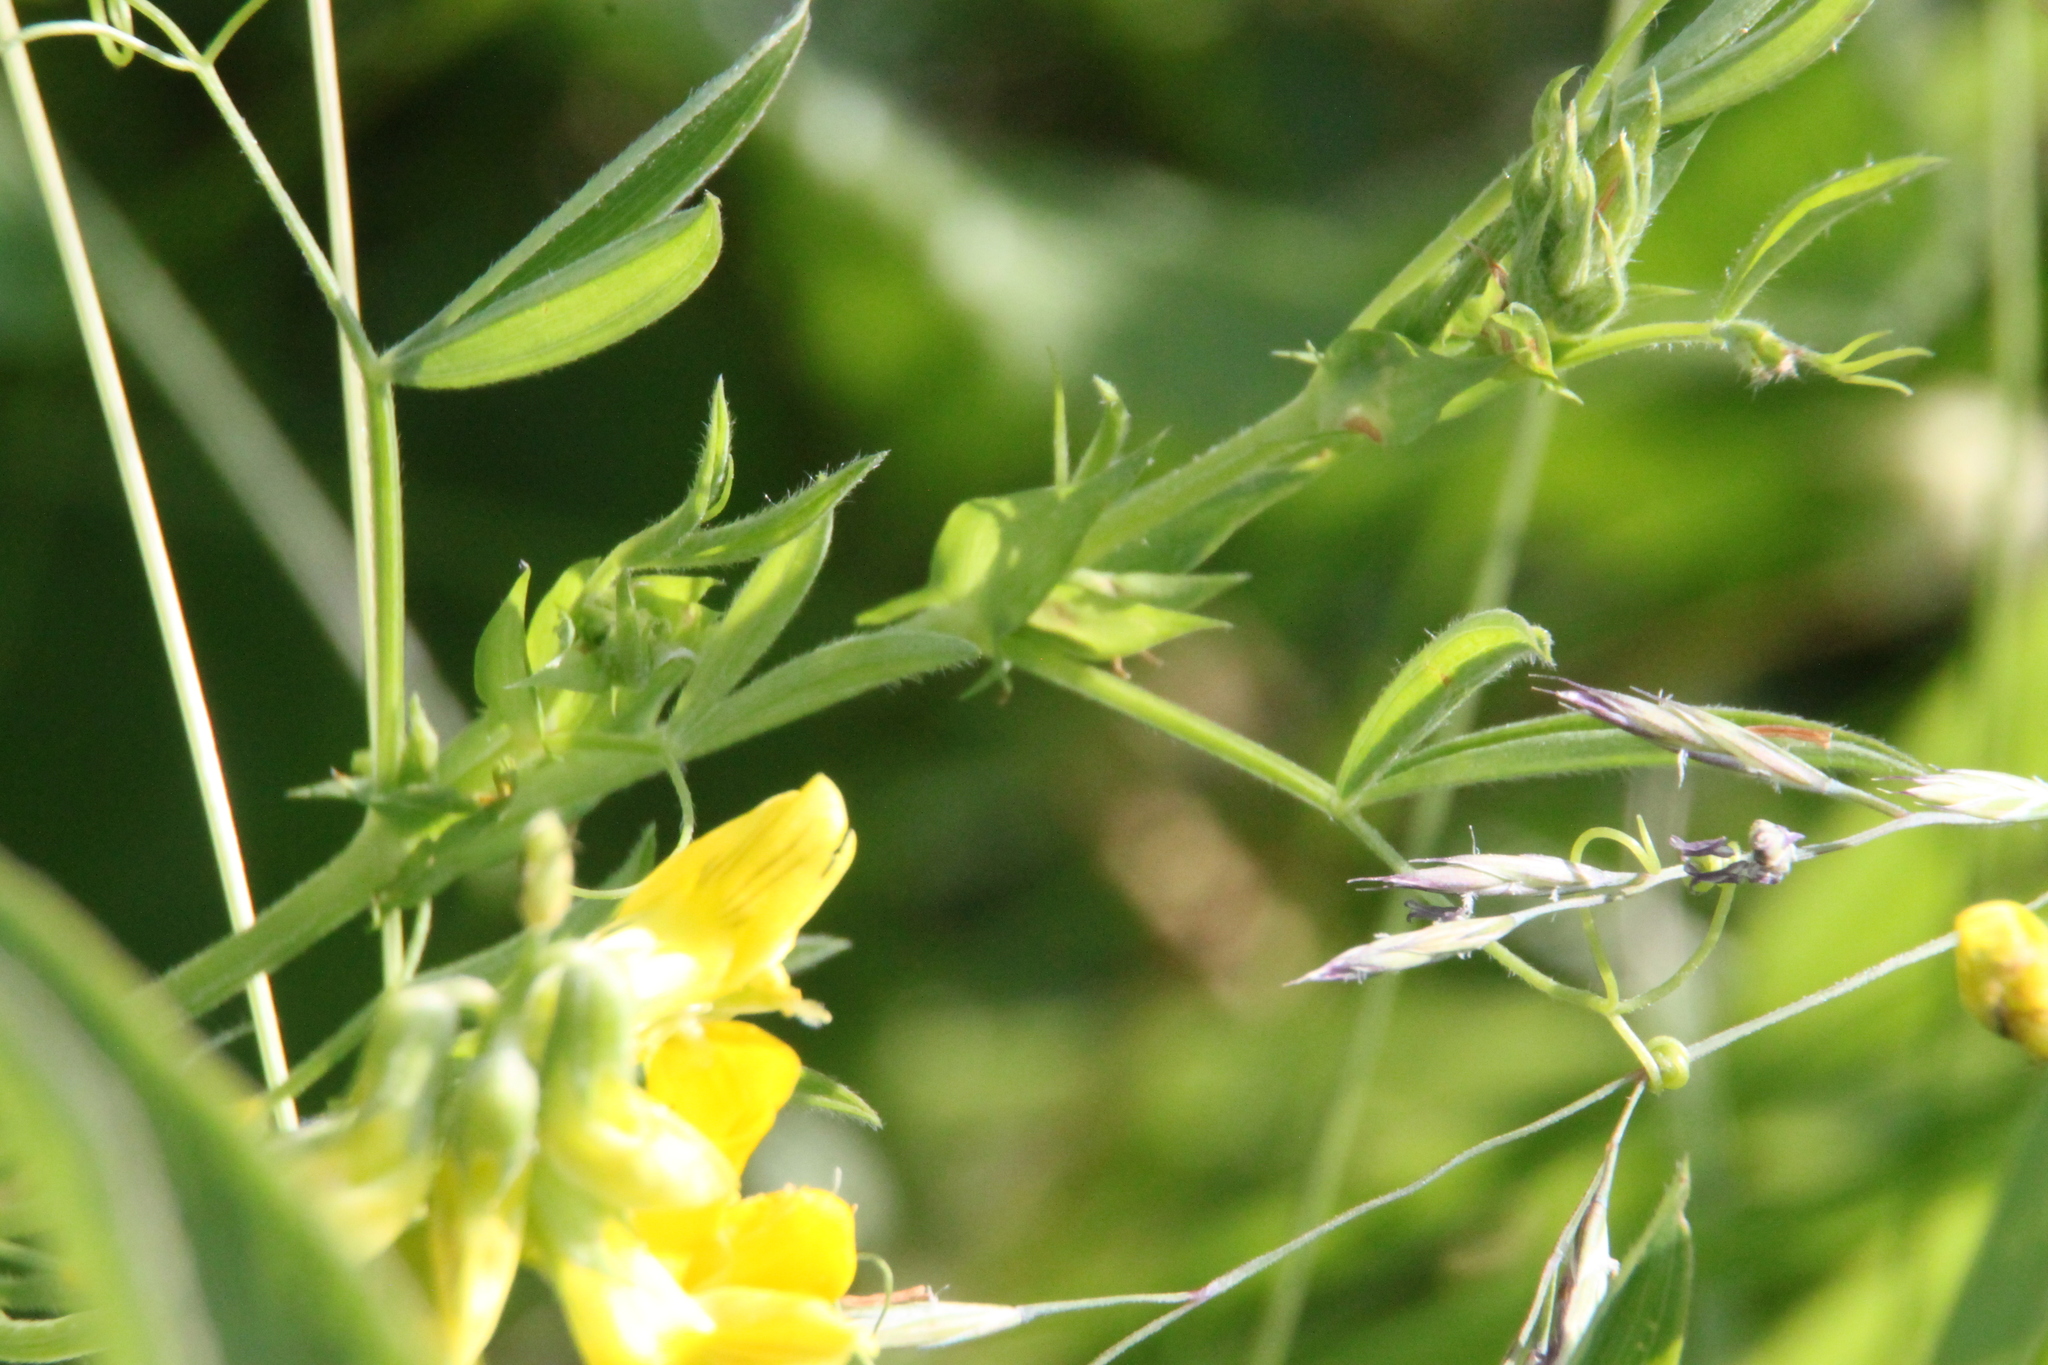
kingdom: Plantae
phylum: Tracheophyta
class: Magnoliopsida
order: Fabales
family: Fabaceae
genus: Lathyrus
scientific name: Lathyrus pratensis
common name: Meadow vetchling
